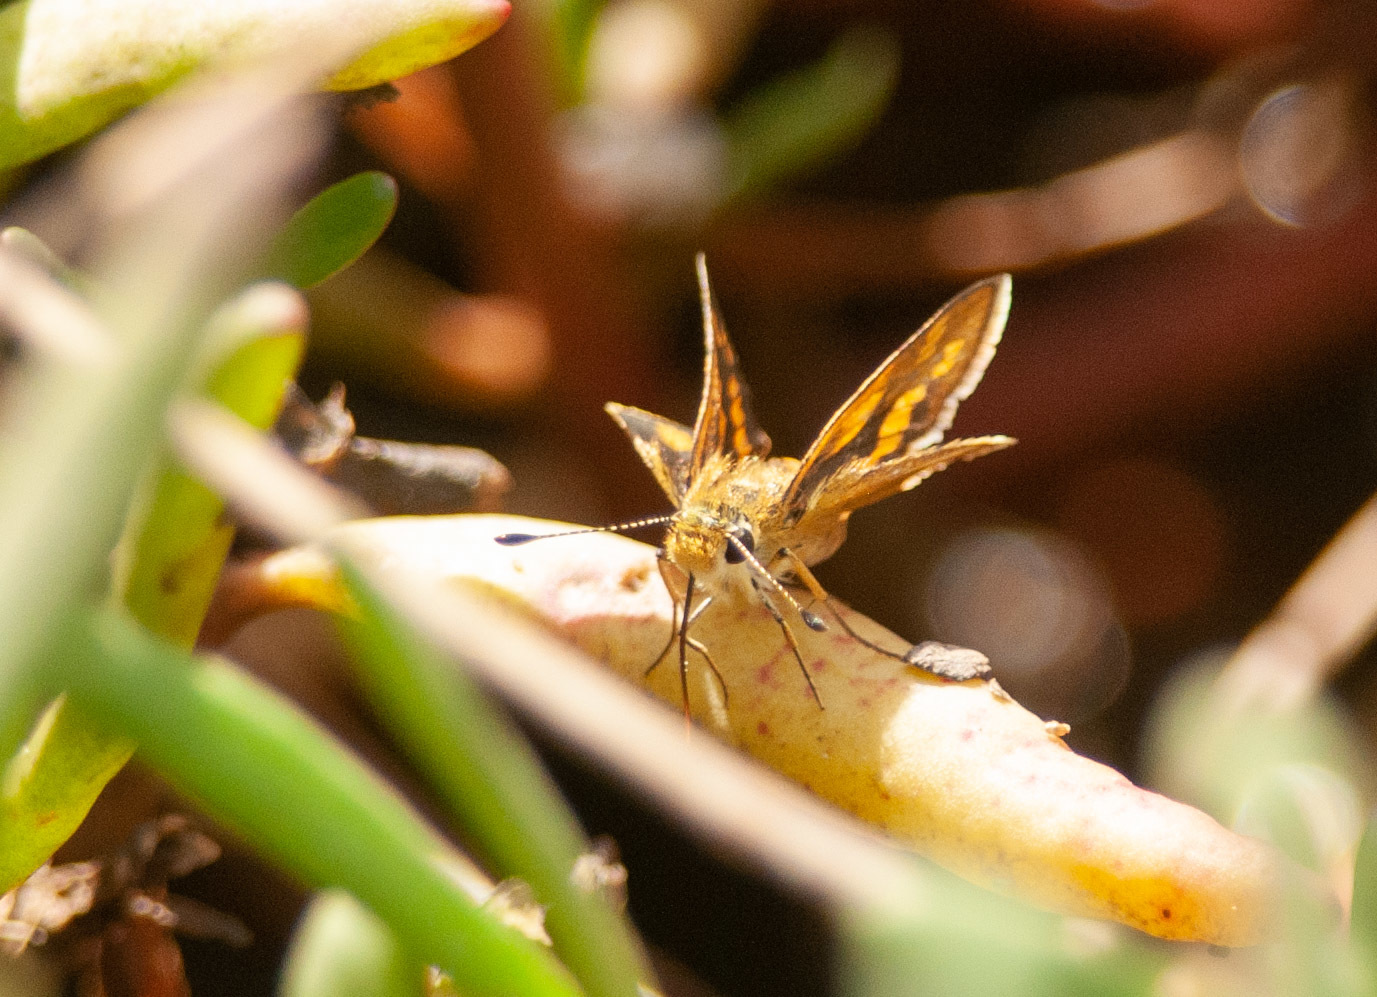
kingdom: Animalia
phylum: Arthropoda
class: Insecta
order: Lepidoptera
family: Hesperiidae
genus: Taractrocera
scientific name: Taractrocera ina
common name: Ina grass-dart
